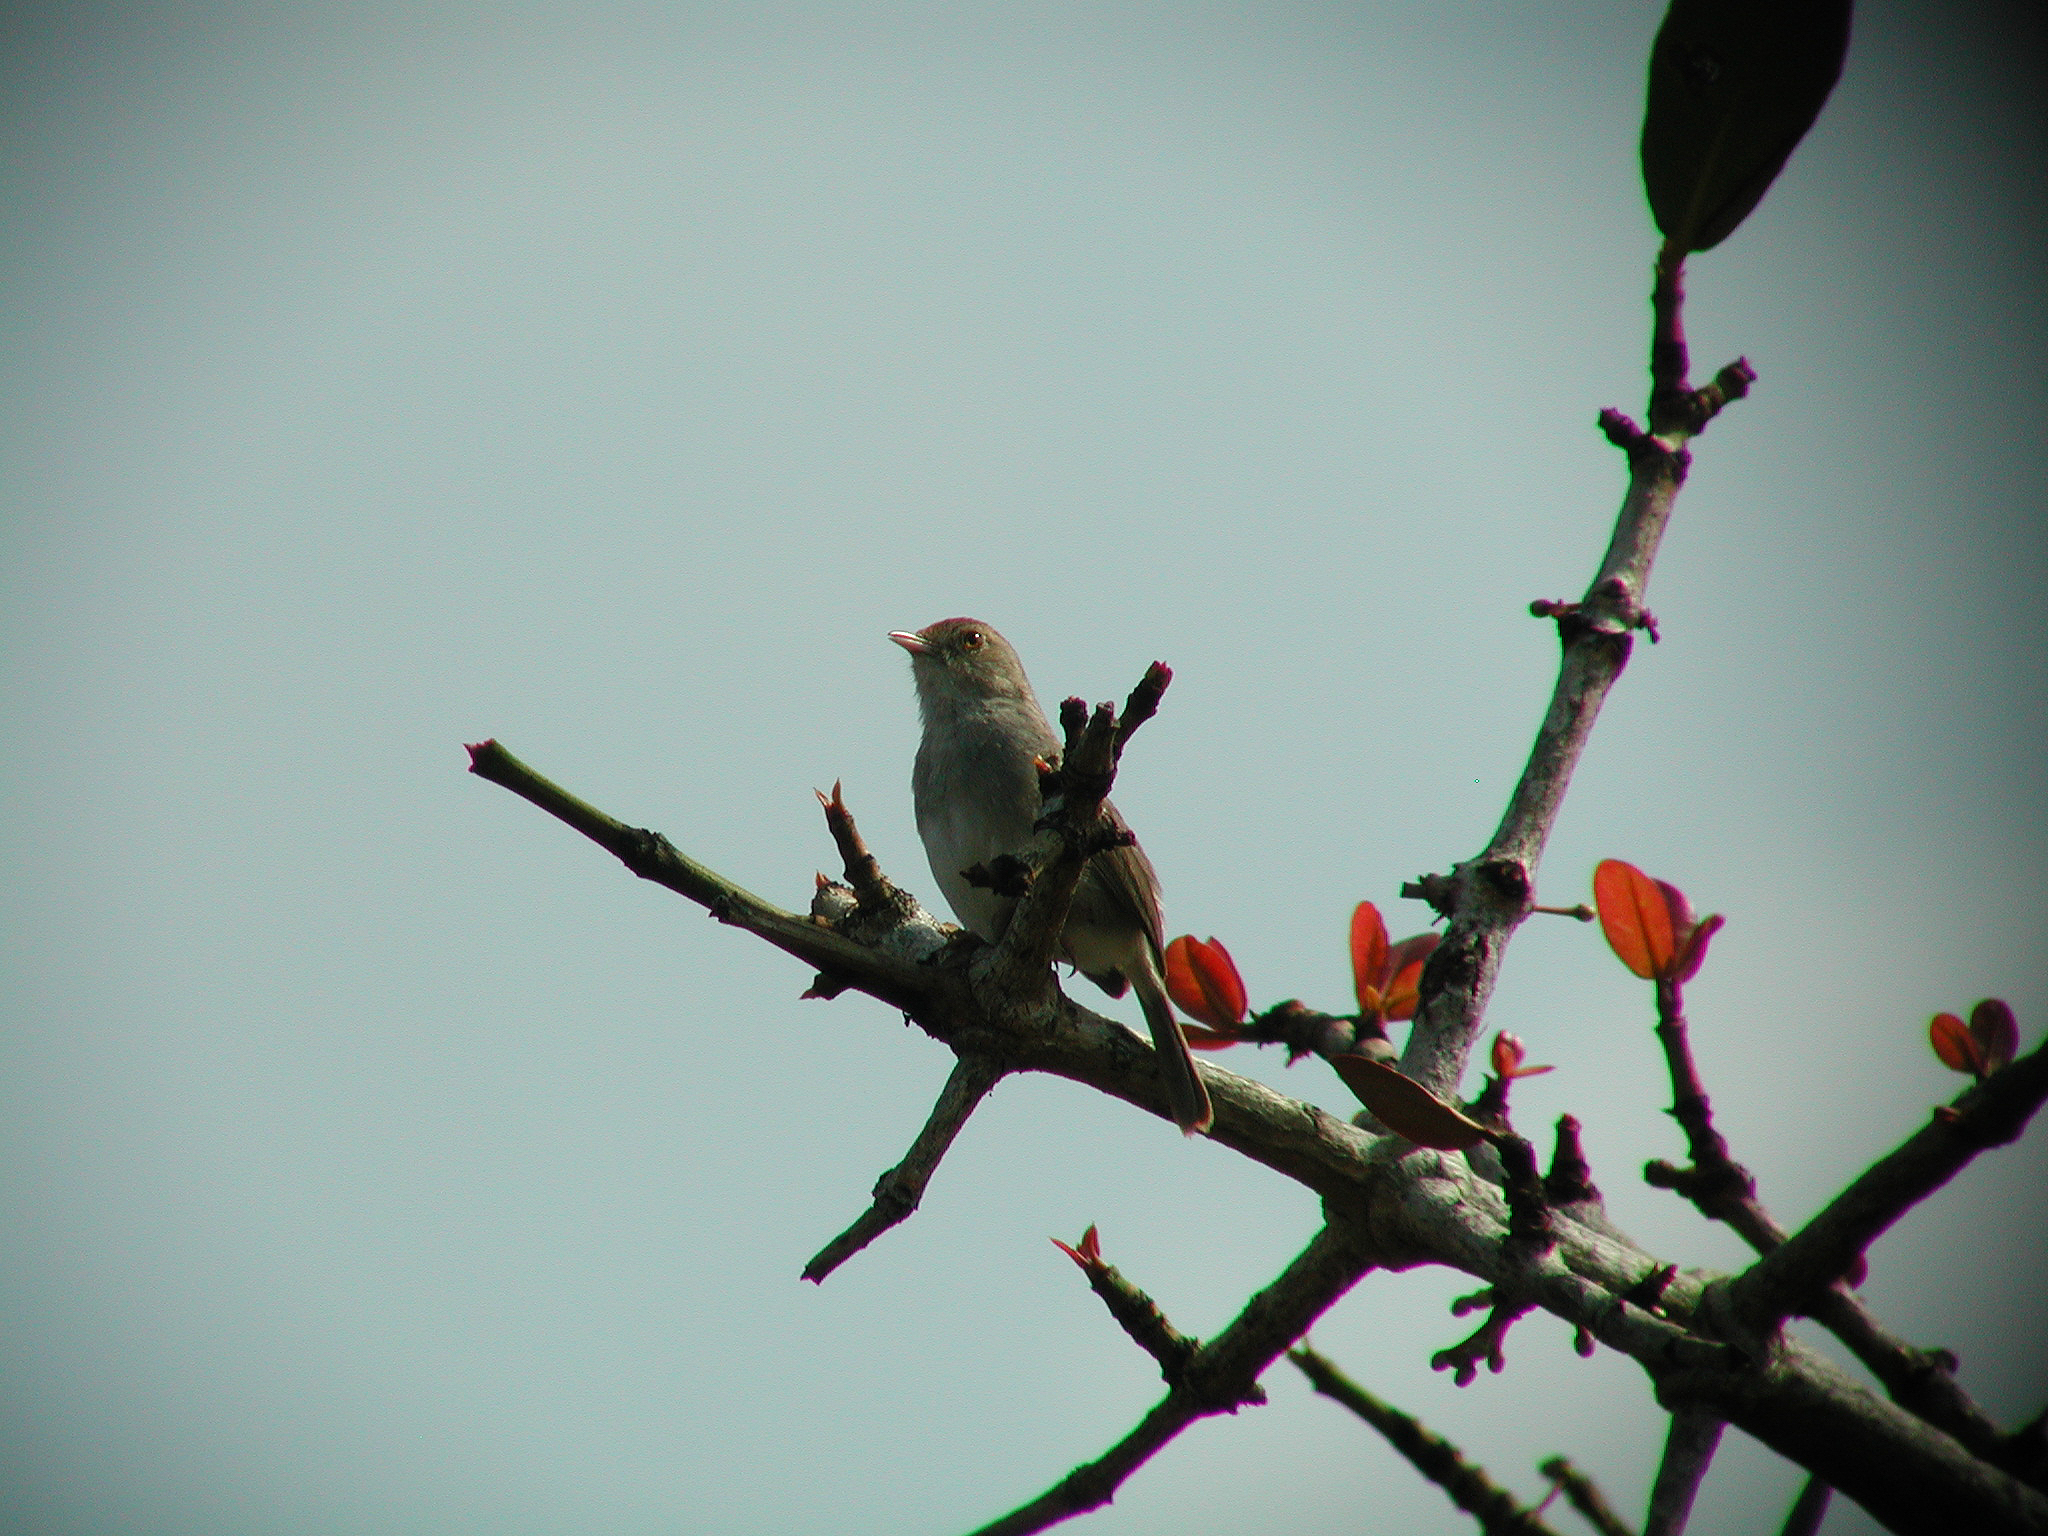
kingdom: Animalia
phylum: Chordata
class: Aves
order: Passeriformes
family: Cisticolidae
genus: Cisticola
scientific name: Cisticola fulvicapilla
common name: Neddicky
